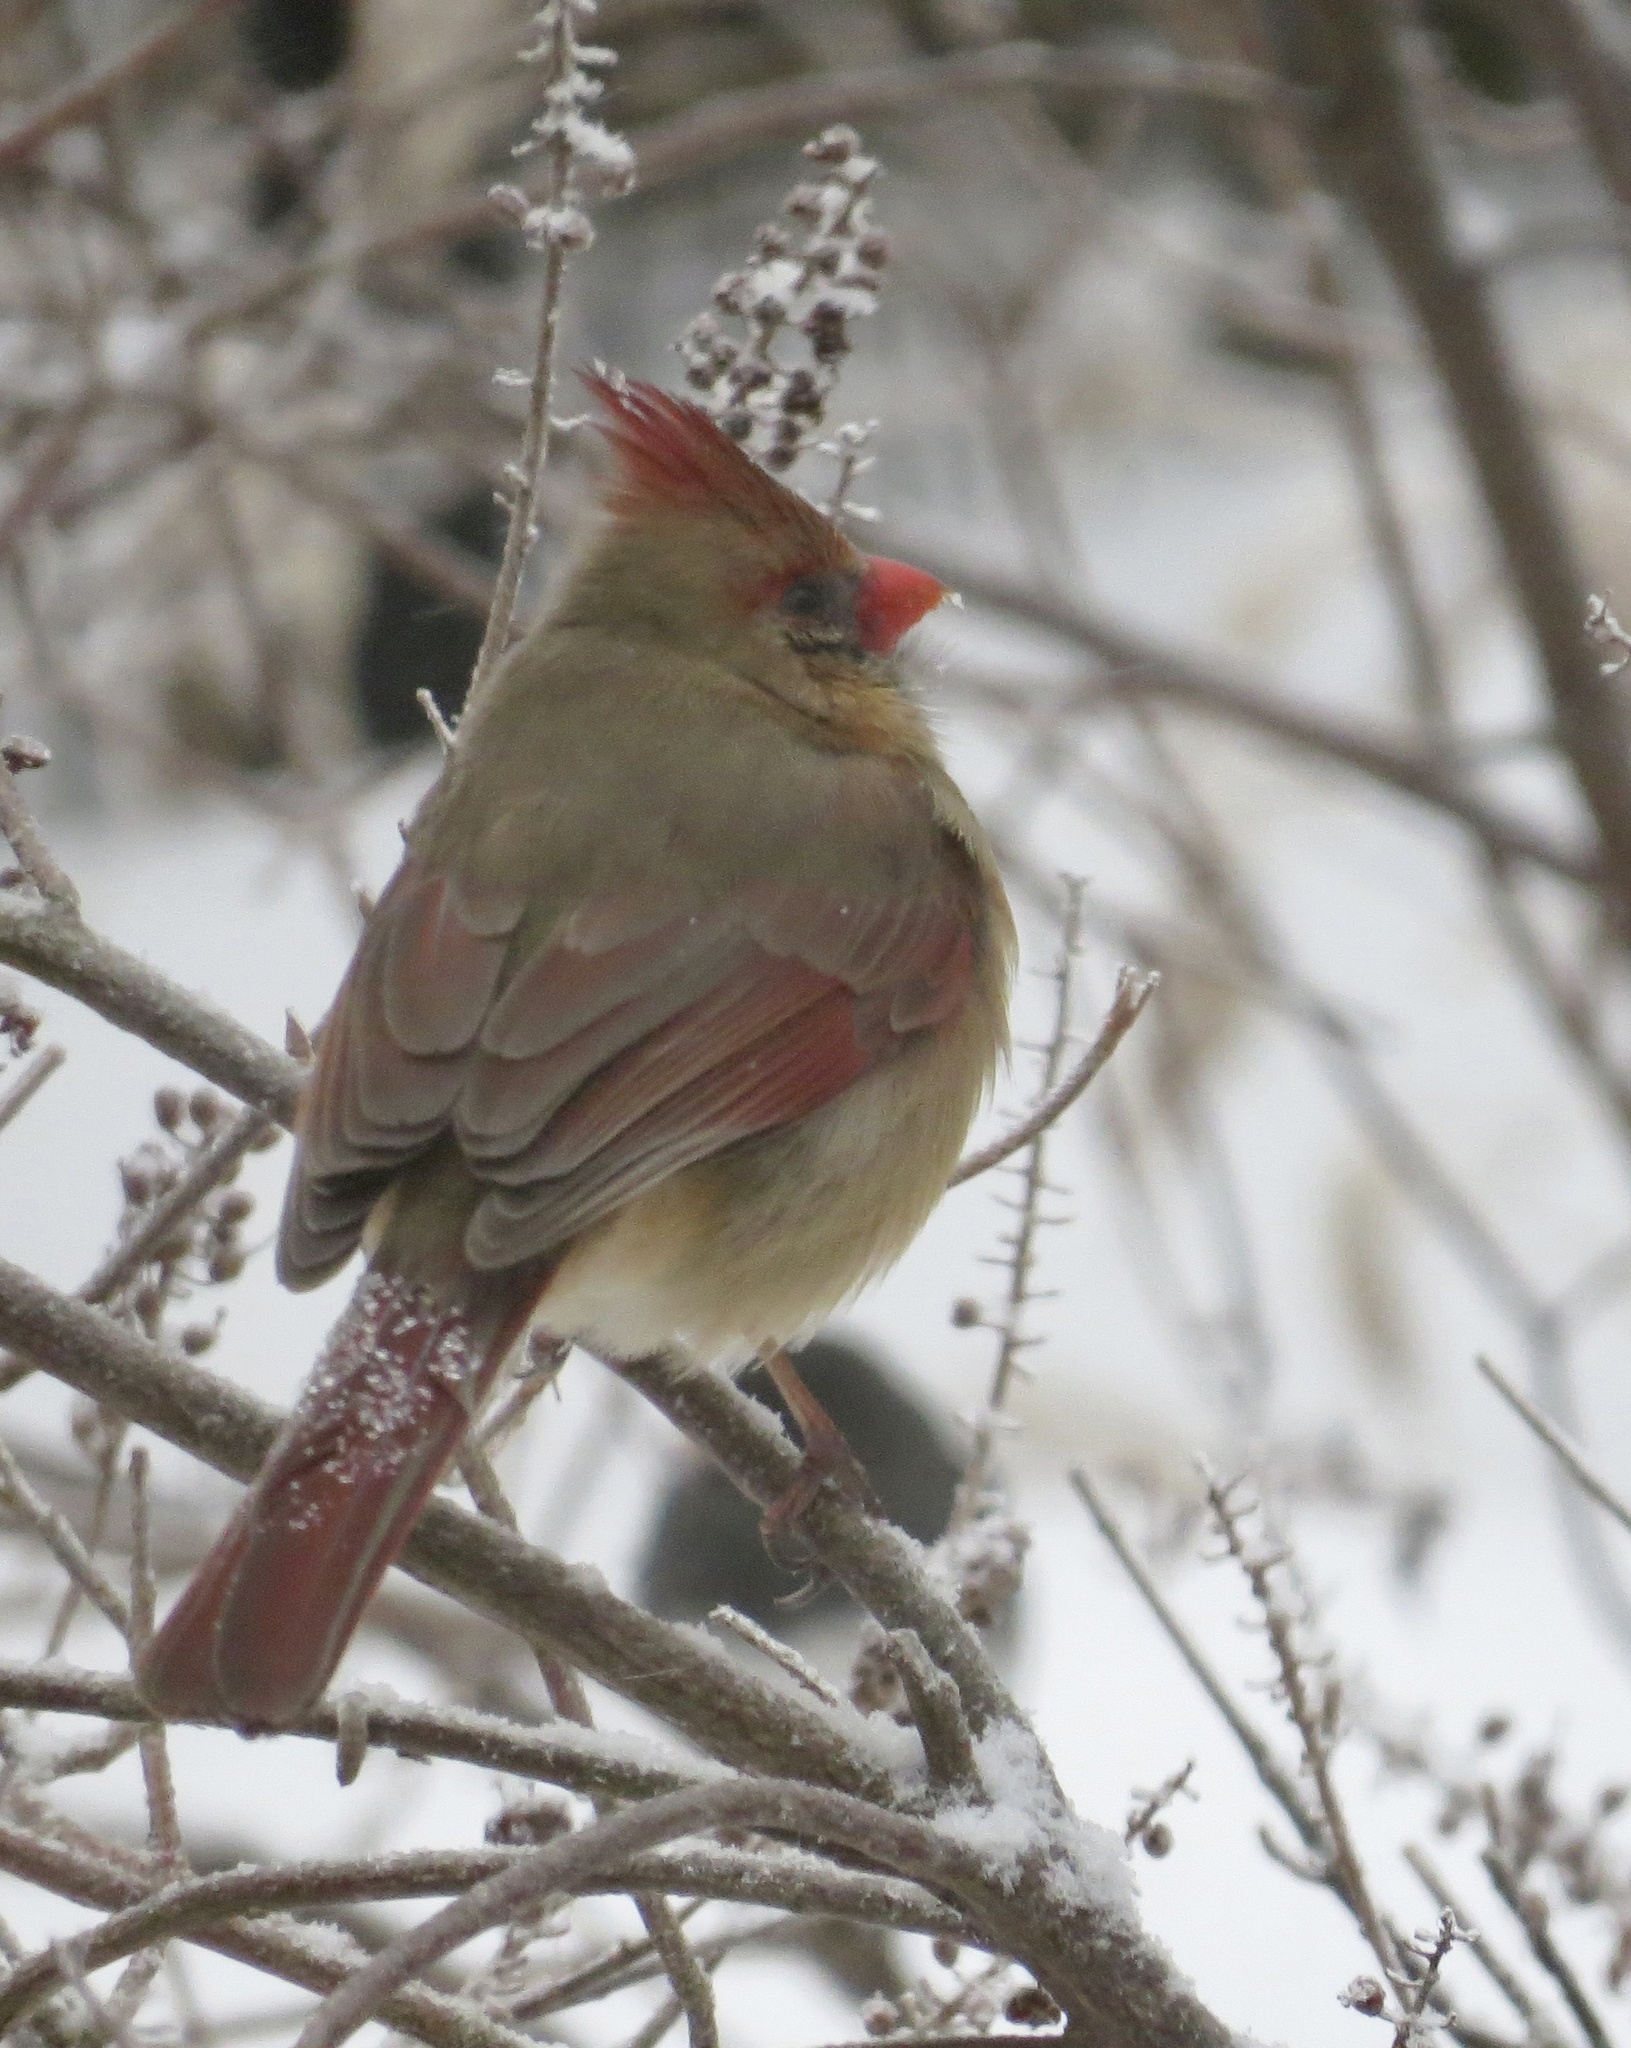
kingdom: Animalia
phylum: Chordata
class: Aves
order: Passeriformes
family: Cardinalidae
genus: Cardinalis
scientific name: Cardinalis cardinalis
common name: Northern cardinal
